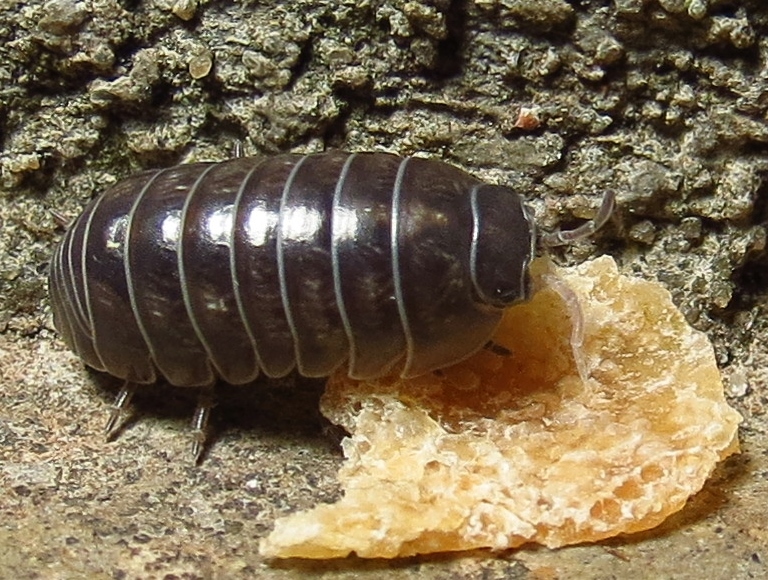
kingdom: Animalia
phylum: Arthropoda
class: Malacostraca
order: Isopoda
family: Armadillidiidae
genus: Armadillidium
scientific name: Armadillidium vulgare
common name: Common pill woodlouse
